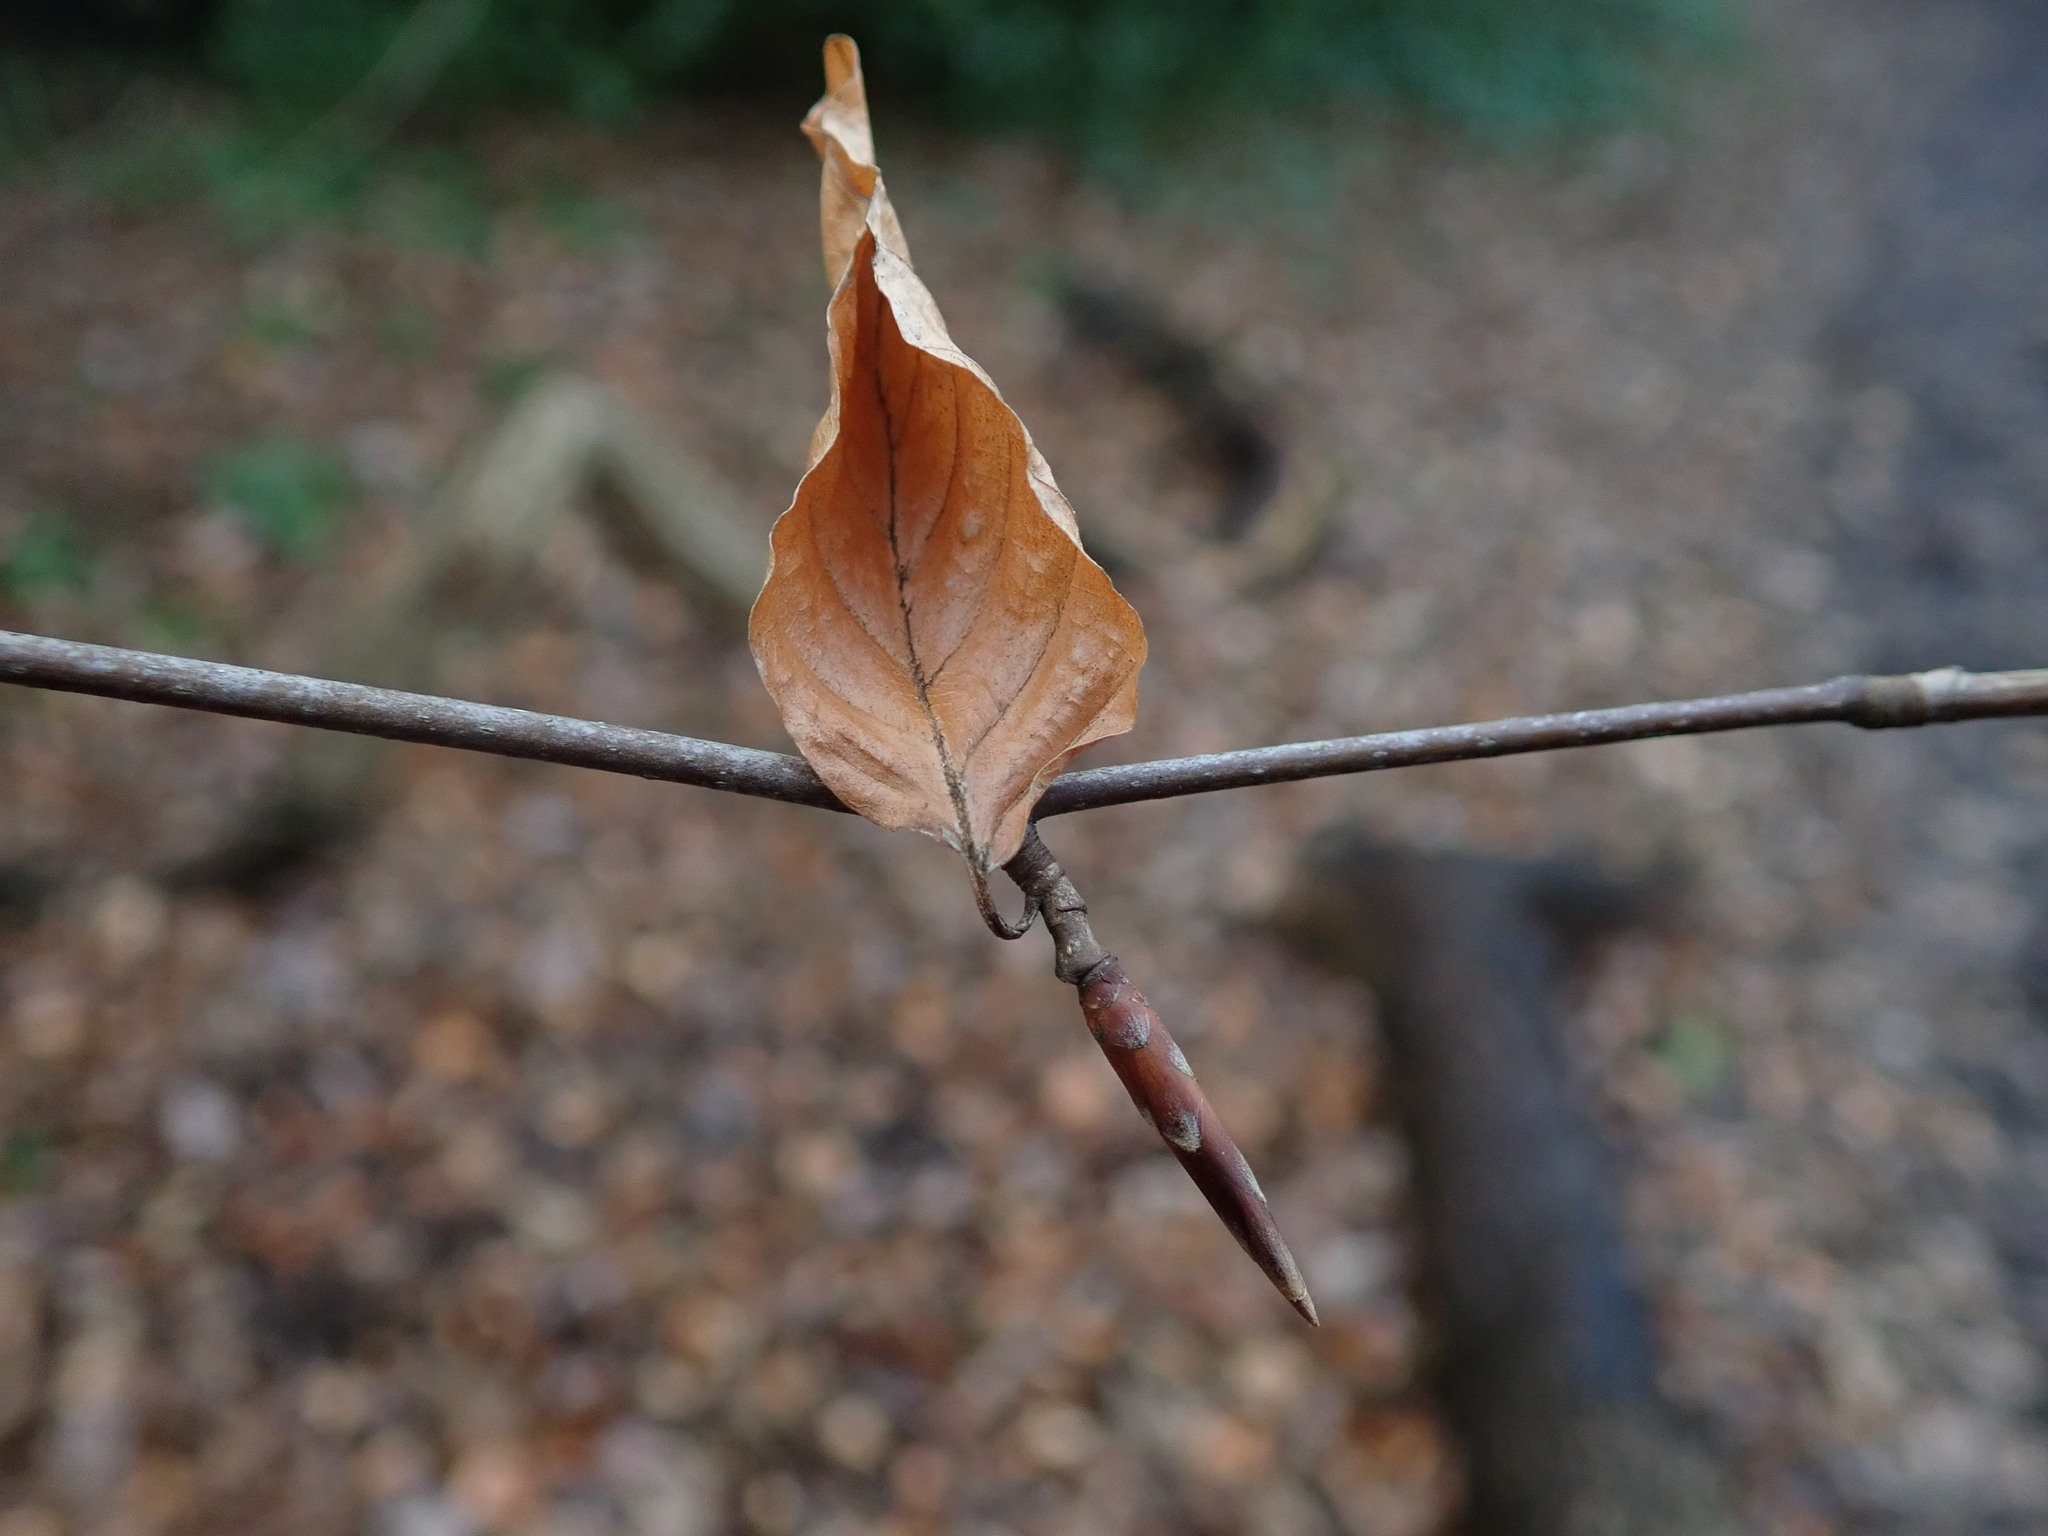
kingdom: Plantae
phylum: Tracheophyta
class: Magnoliopsida
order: Fagales
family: Fagaceae
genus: Fagus
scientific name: Fagus sylvatica
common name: Beech
